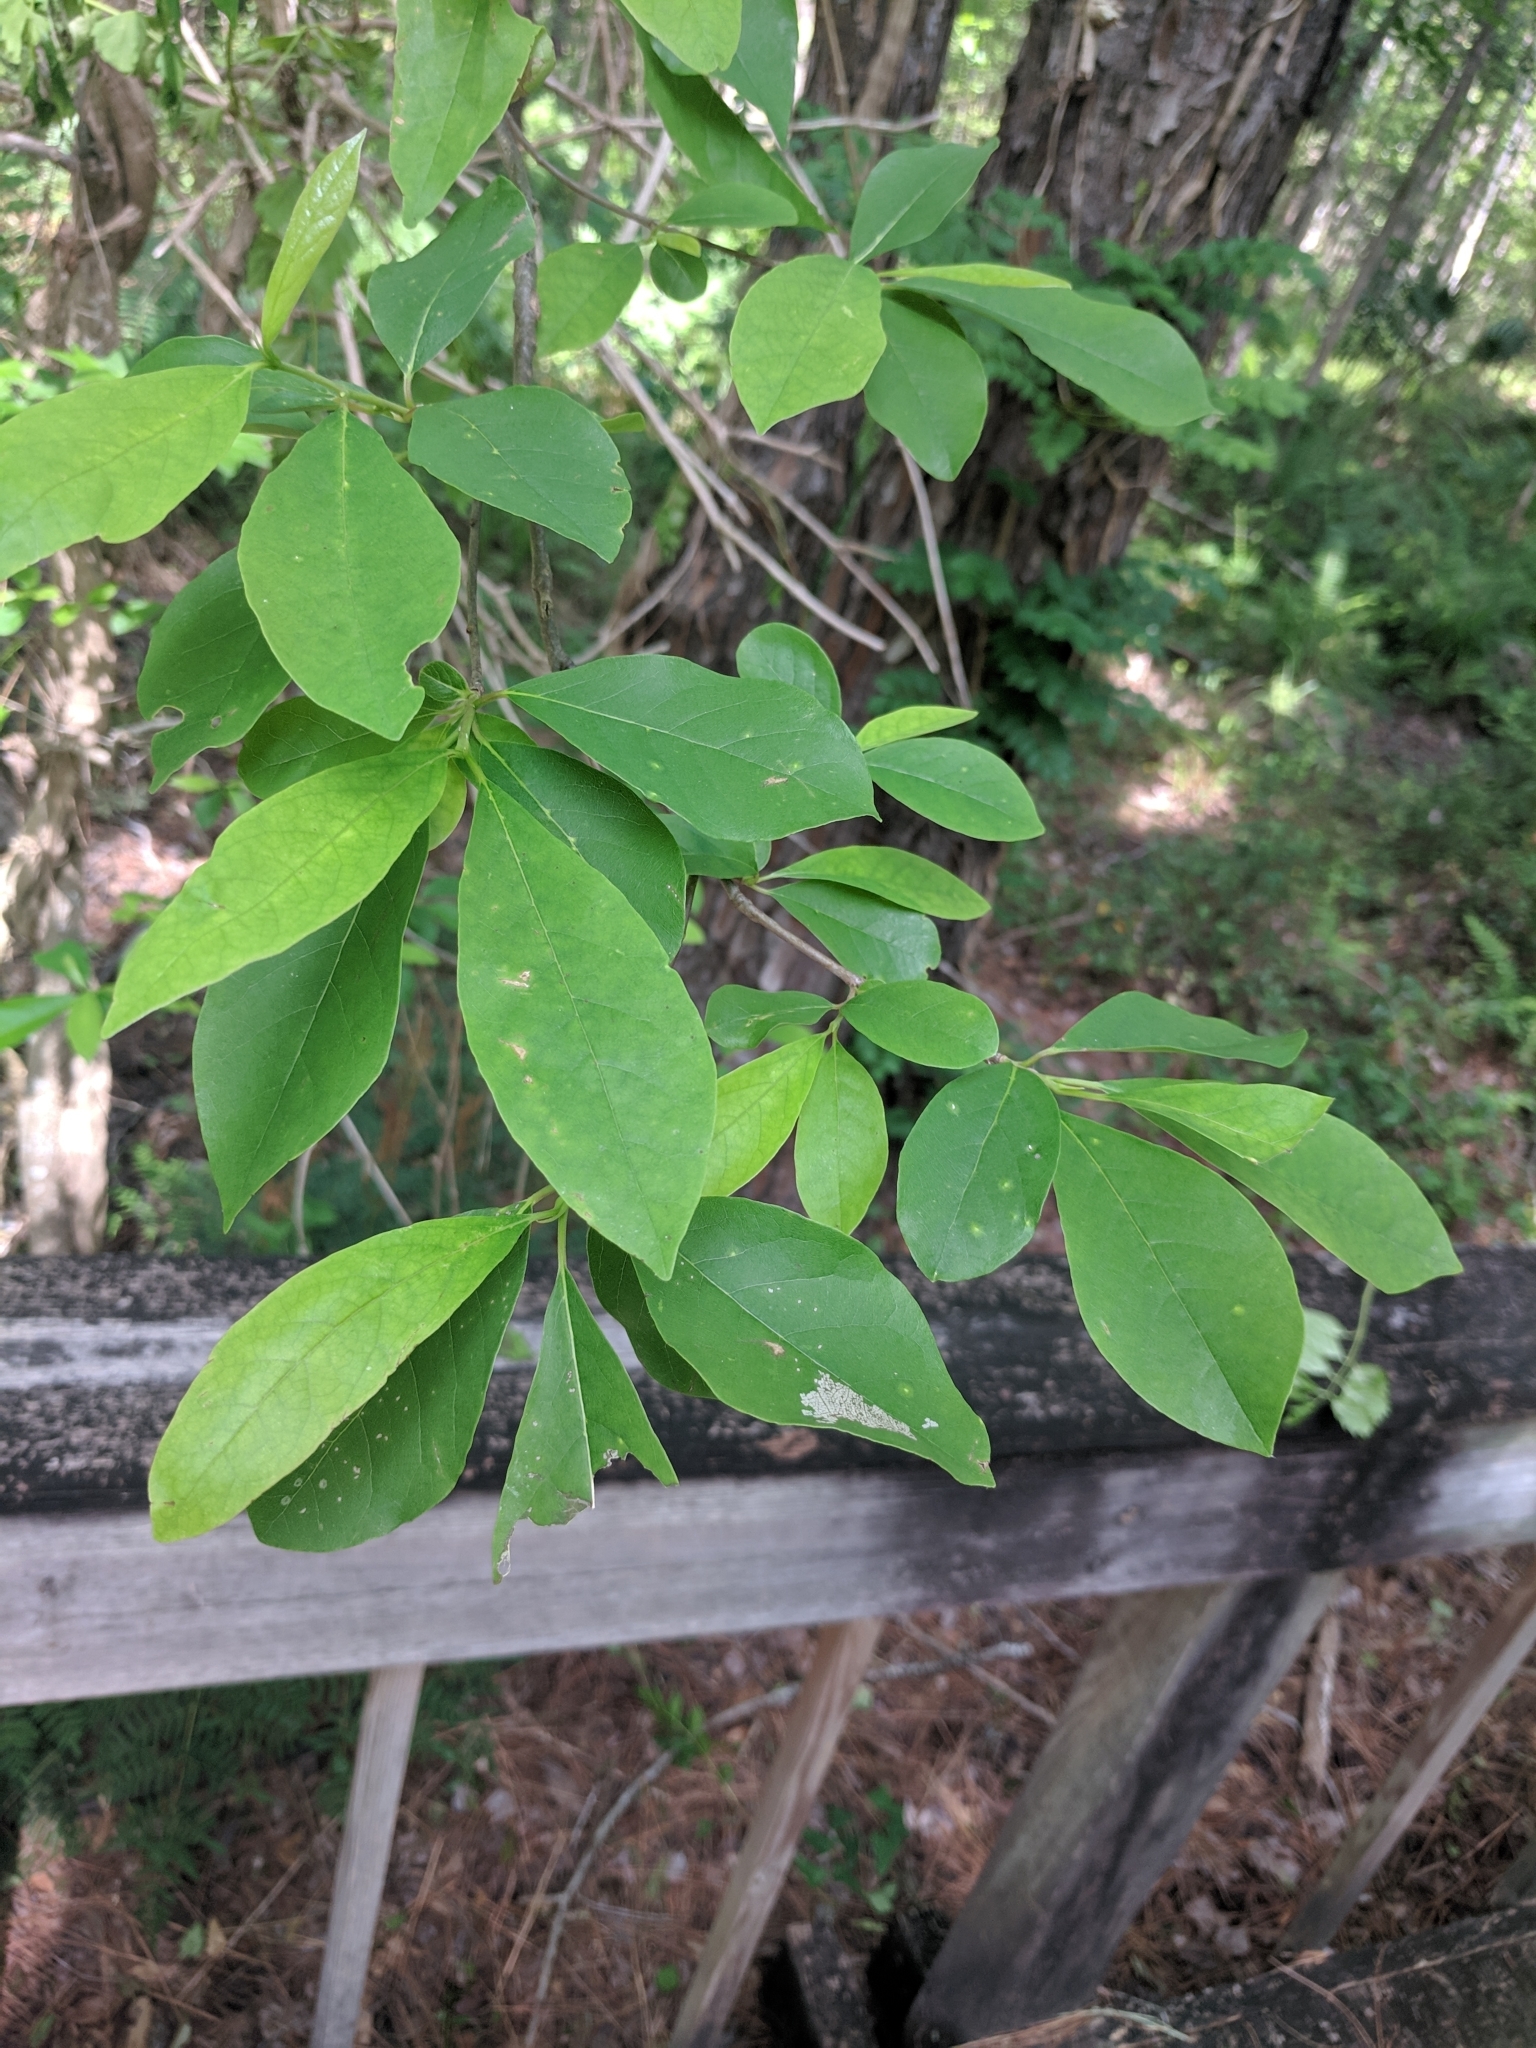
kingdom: Plantae
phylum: Tracheophyta
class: Magnoliopsida
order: Magnoliales
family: Magnoliaceae
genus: Magnolia
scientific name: Magnolia virginiana
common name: Swamp bay
